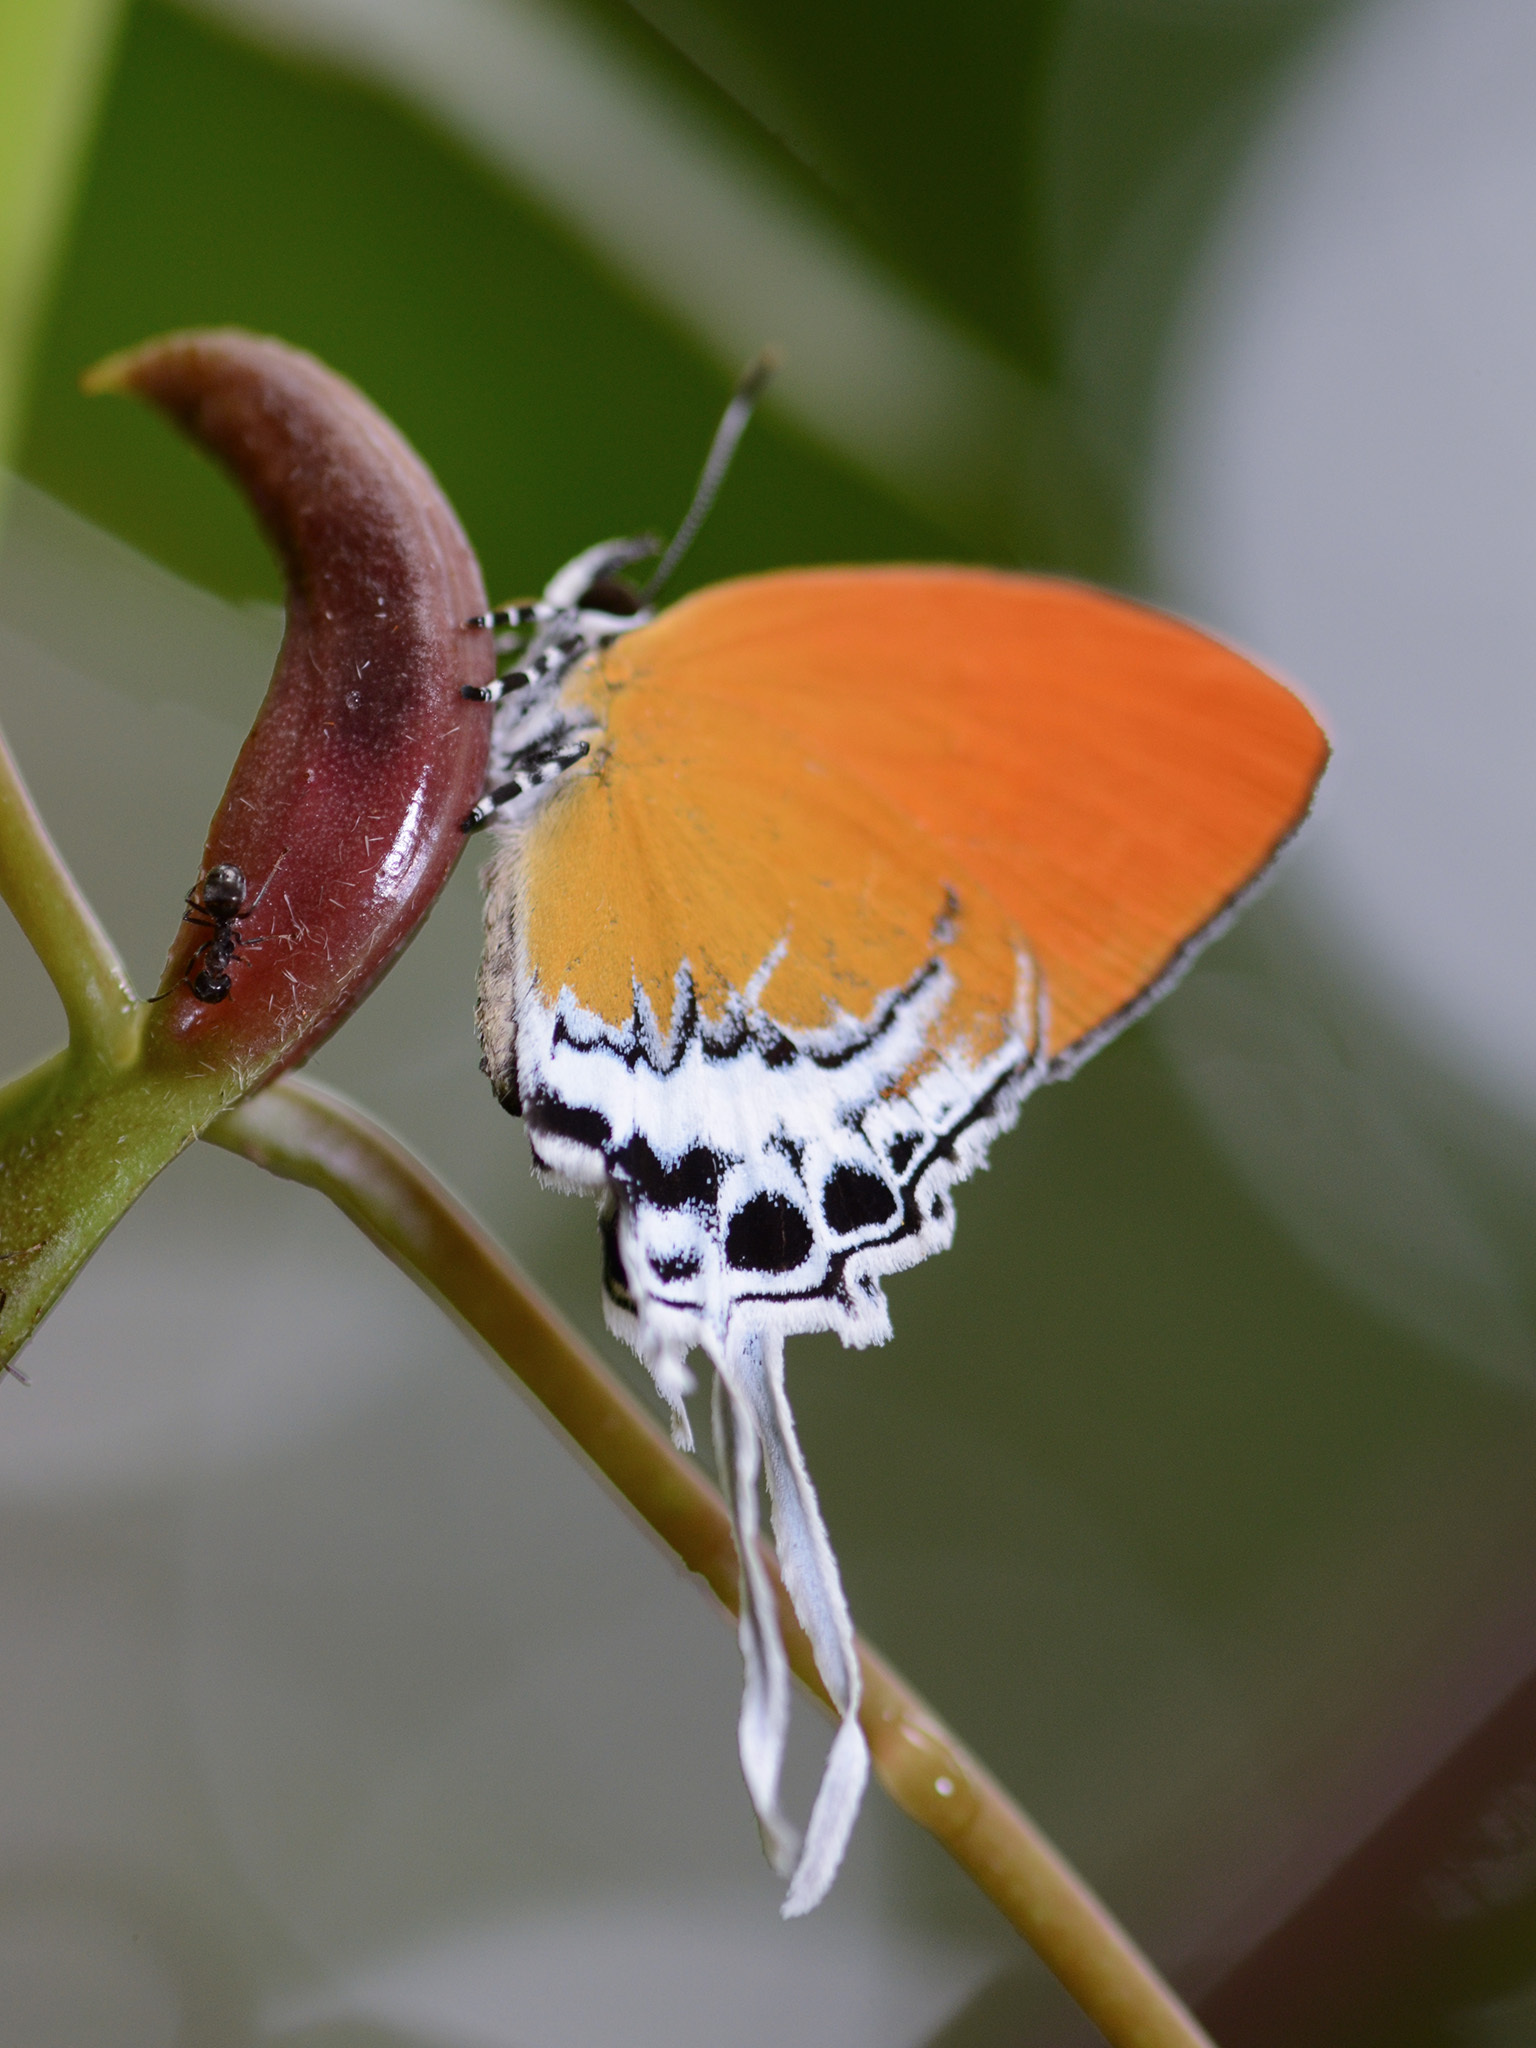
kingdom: Animalia
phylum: Arthropoda
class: Insecta
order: Lepidoptera
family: Lycaenidae
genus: Eooxylides
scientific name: Eooxylides tharis
